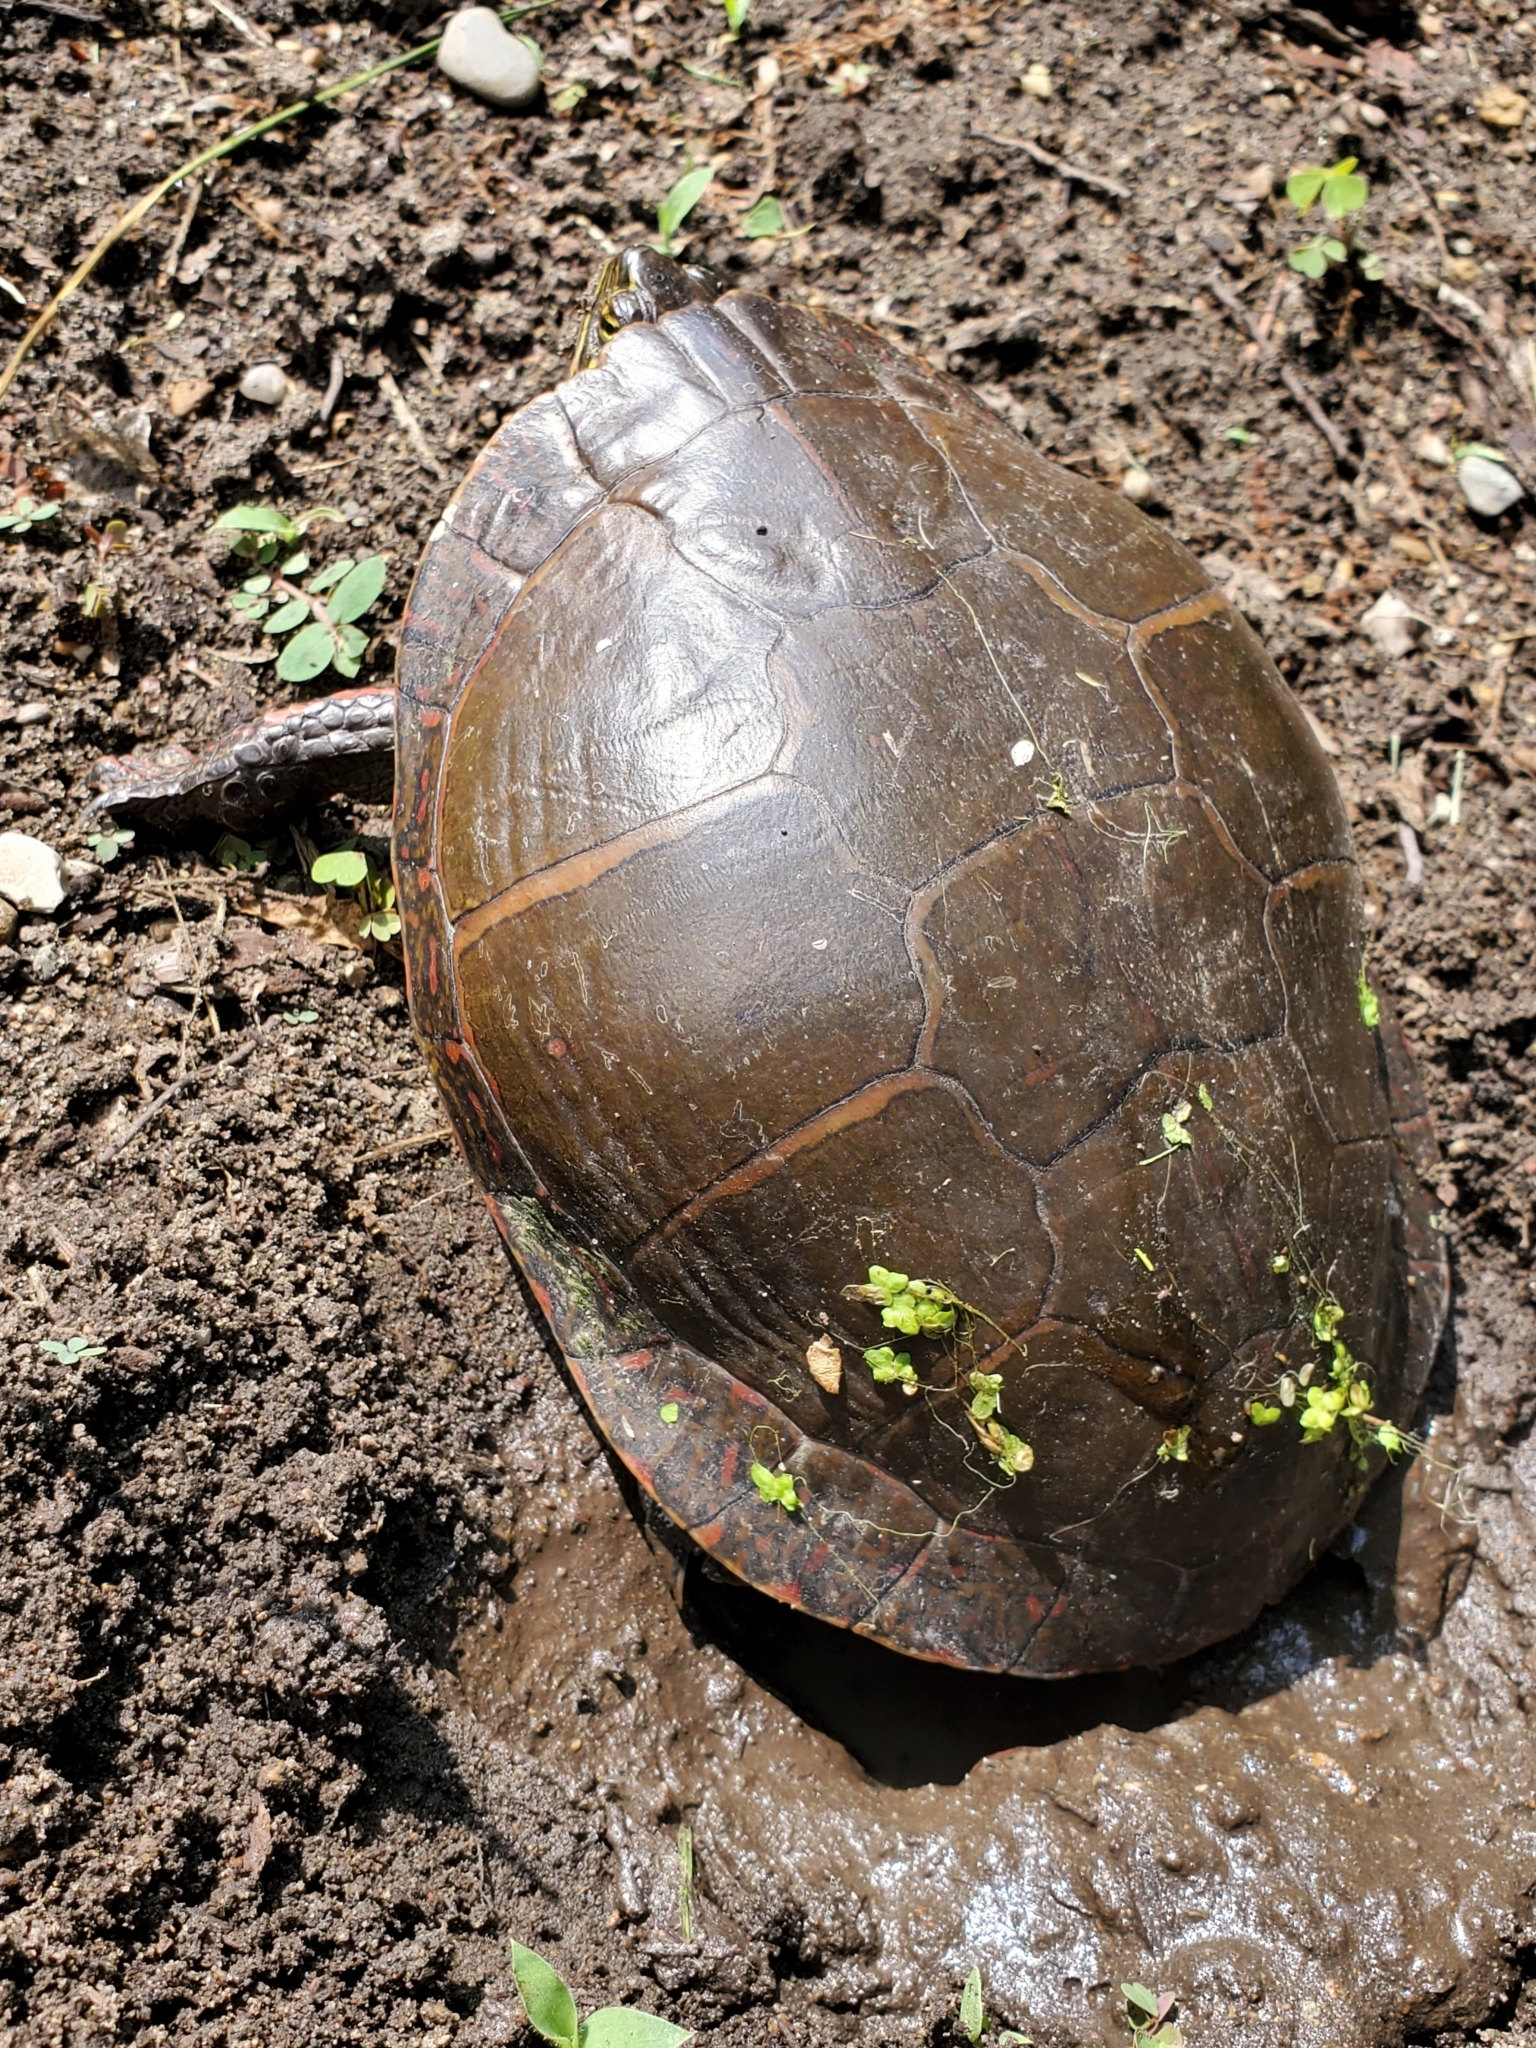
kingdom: Animalia
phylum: Chordata
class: Testudines
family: Emydidae
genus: Chrysemys
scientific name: Chrysemys picta
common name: Painted turtle
